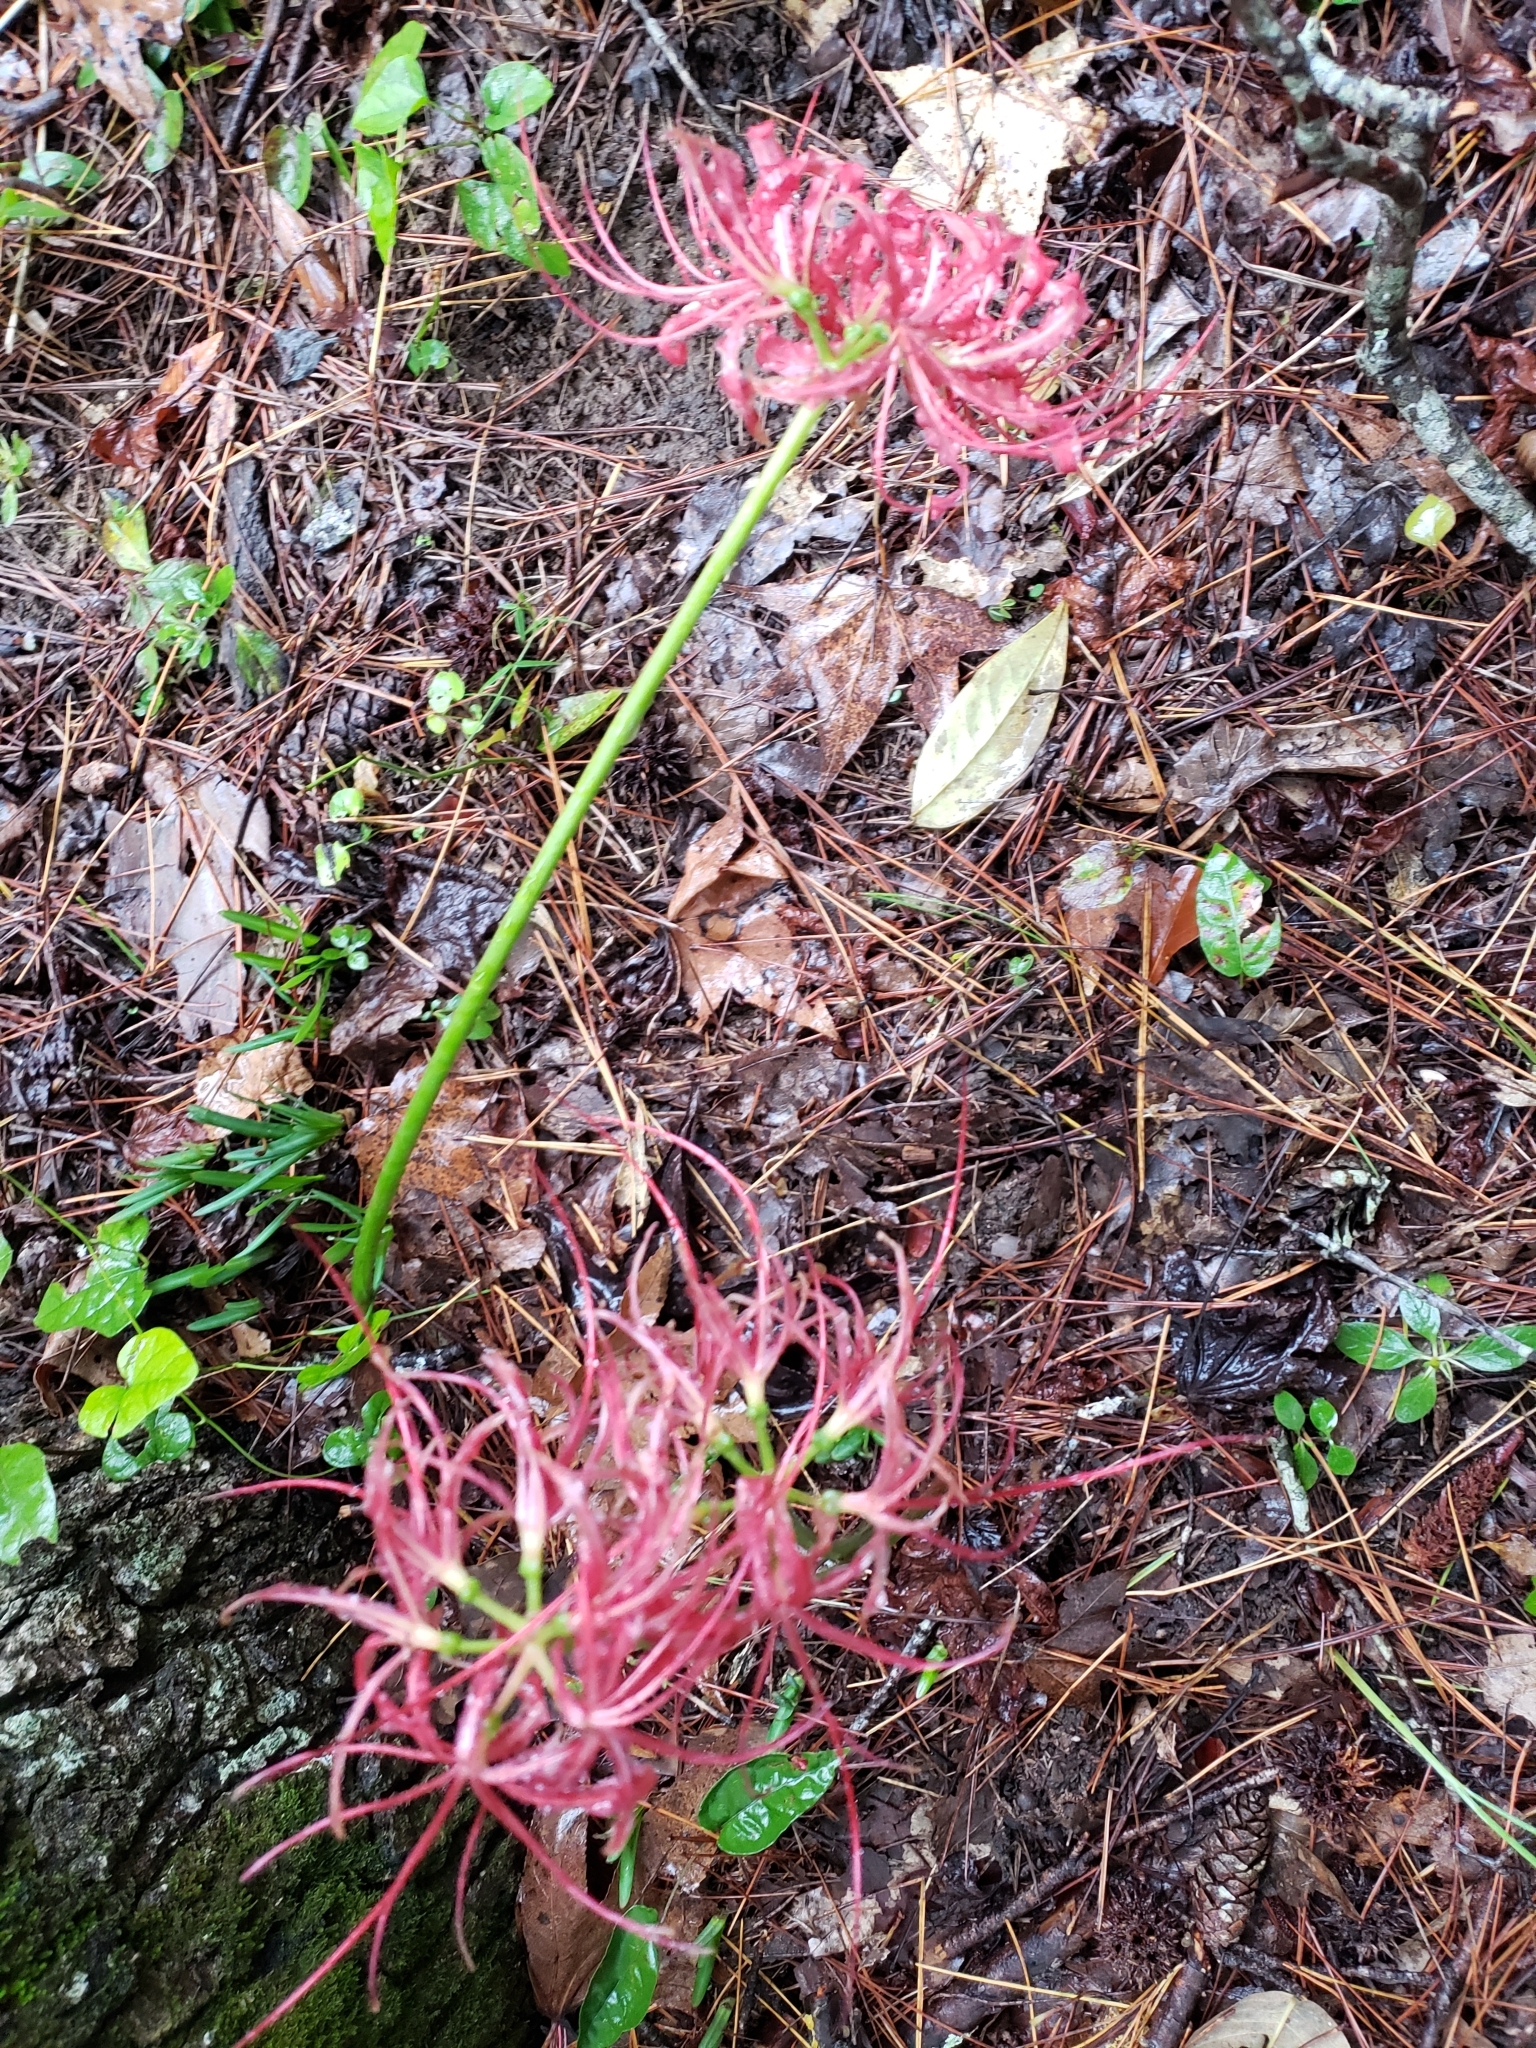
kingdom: Plantae
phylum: Tracheophyta
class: Liliopsida
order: Asparagales
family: Amaryllidaceae
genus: Lycoris
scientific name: Lycoris radiata
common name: Red spider lily
